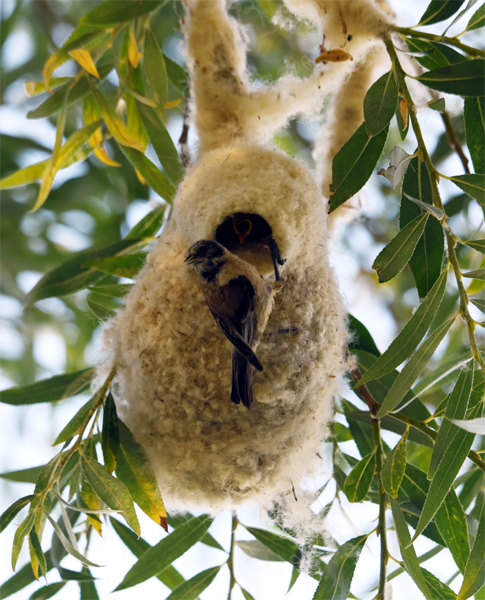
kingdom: Animalia
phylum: Chordata
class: Aves
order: Passeriformes
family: Remizidae
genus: Remiz
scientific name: Remiz pendulinus
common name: Eurasian penduline tit
